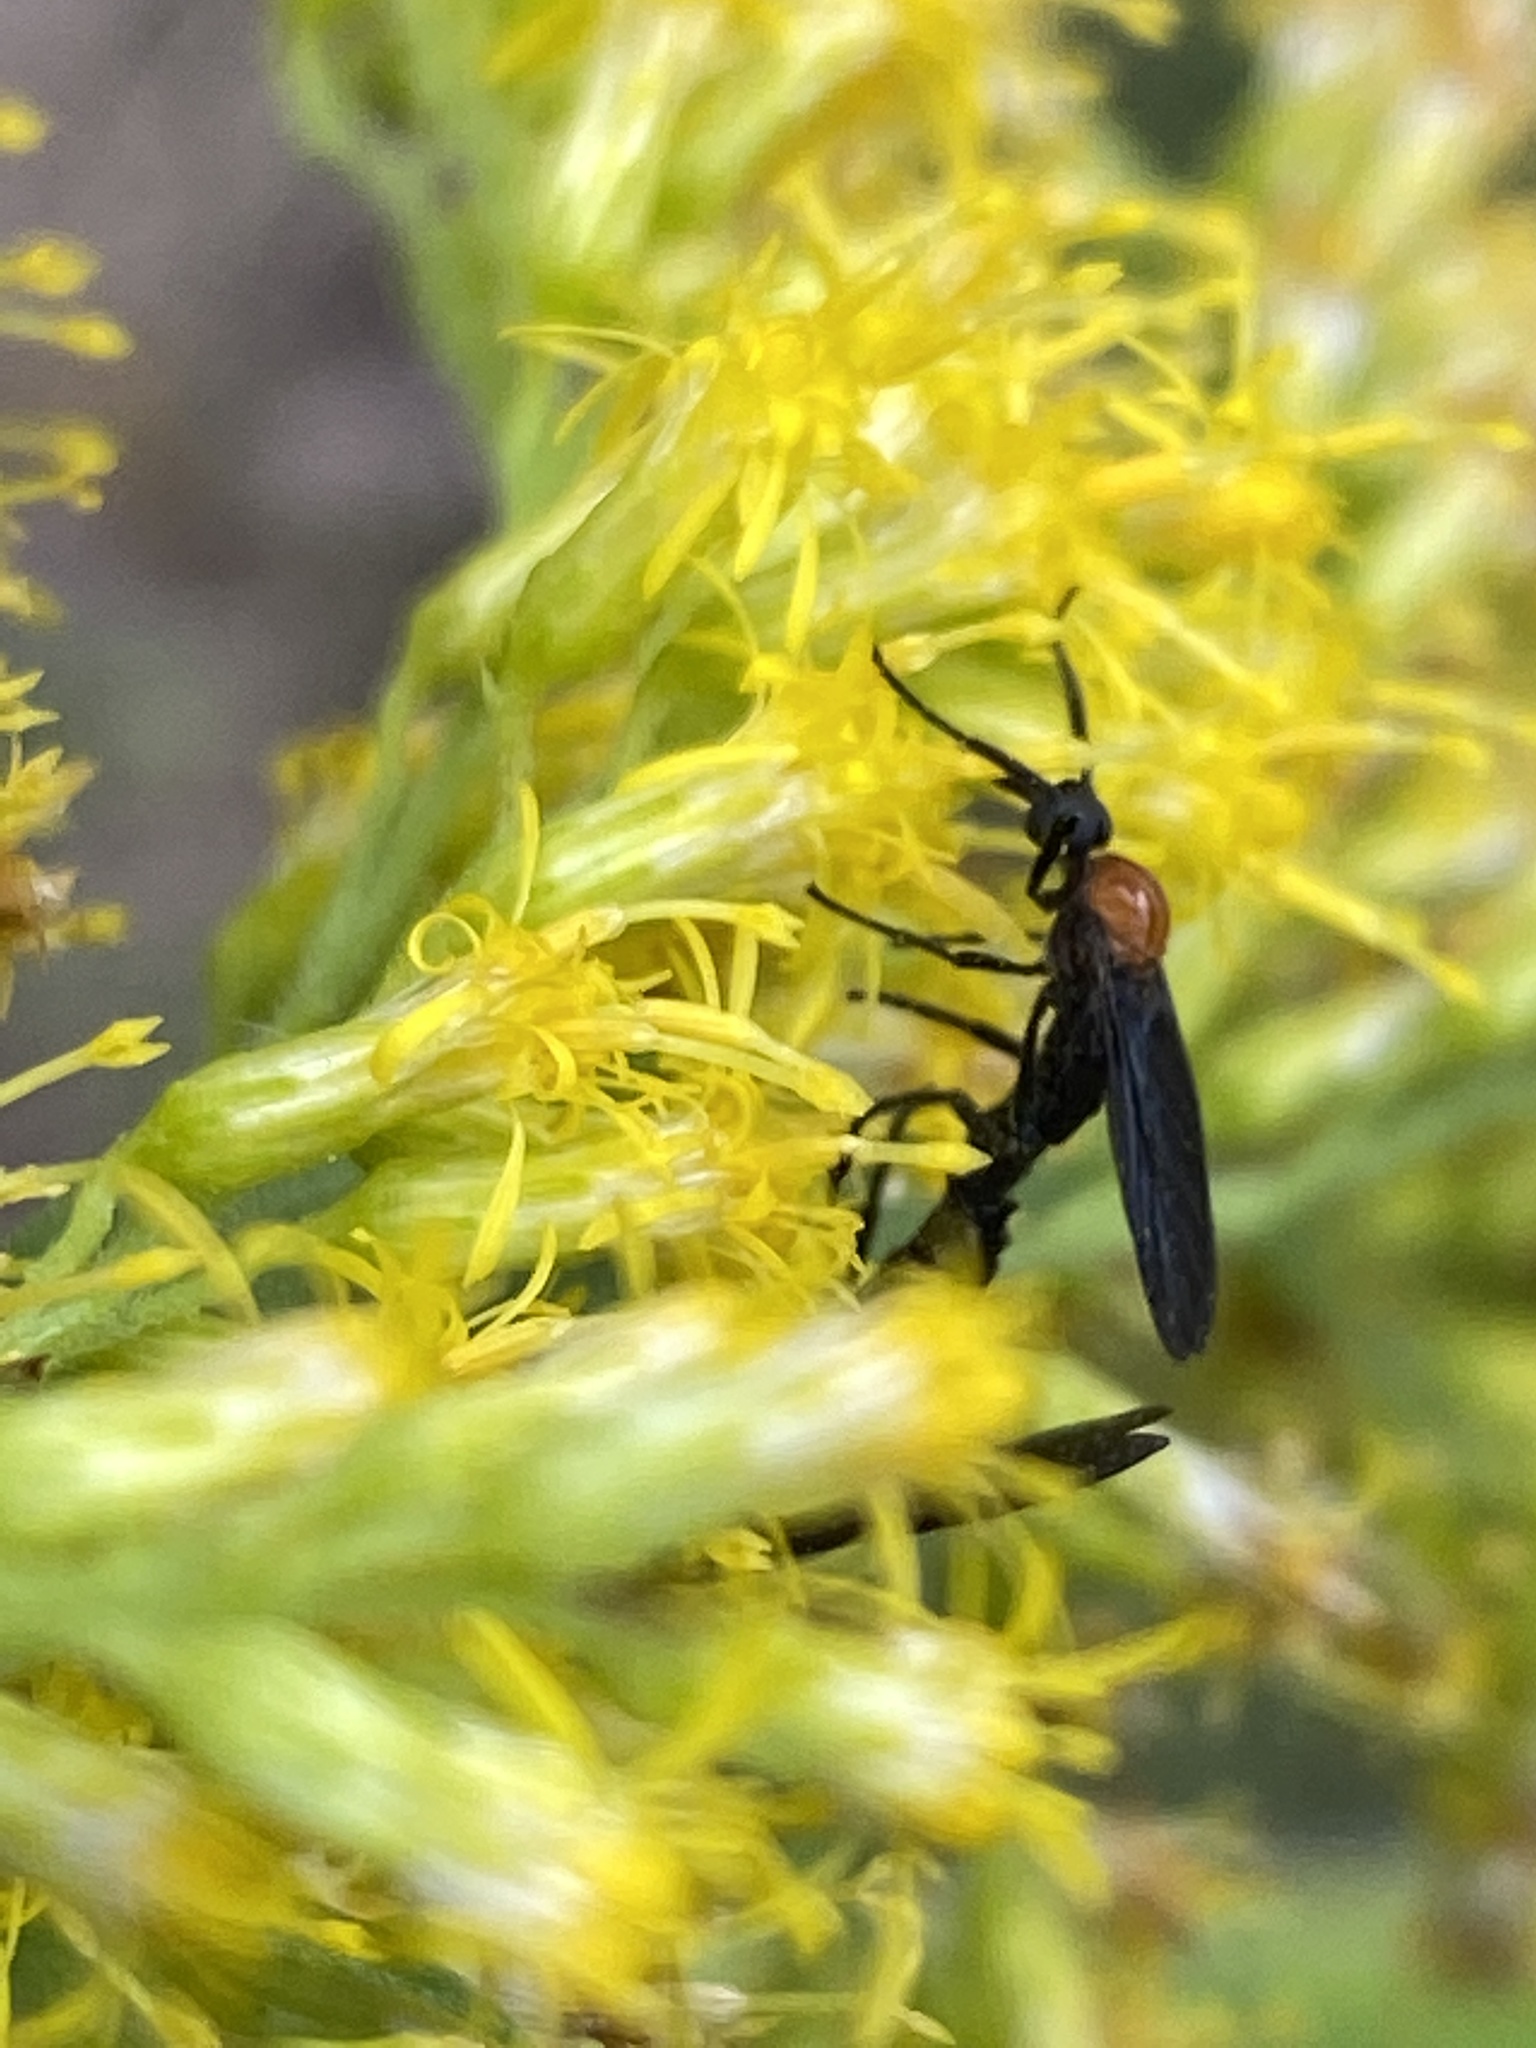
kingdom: Animalia
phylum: Arthropoda
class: Insecta
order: Diptera
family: Bibionidae
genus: Plecia
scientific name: Plecia nearctica
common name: March fly
